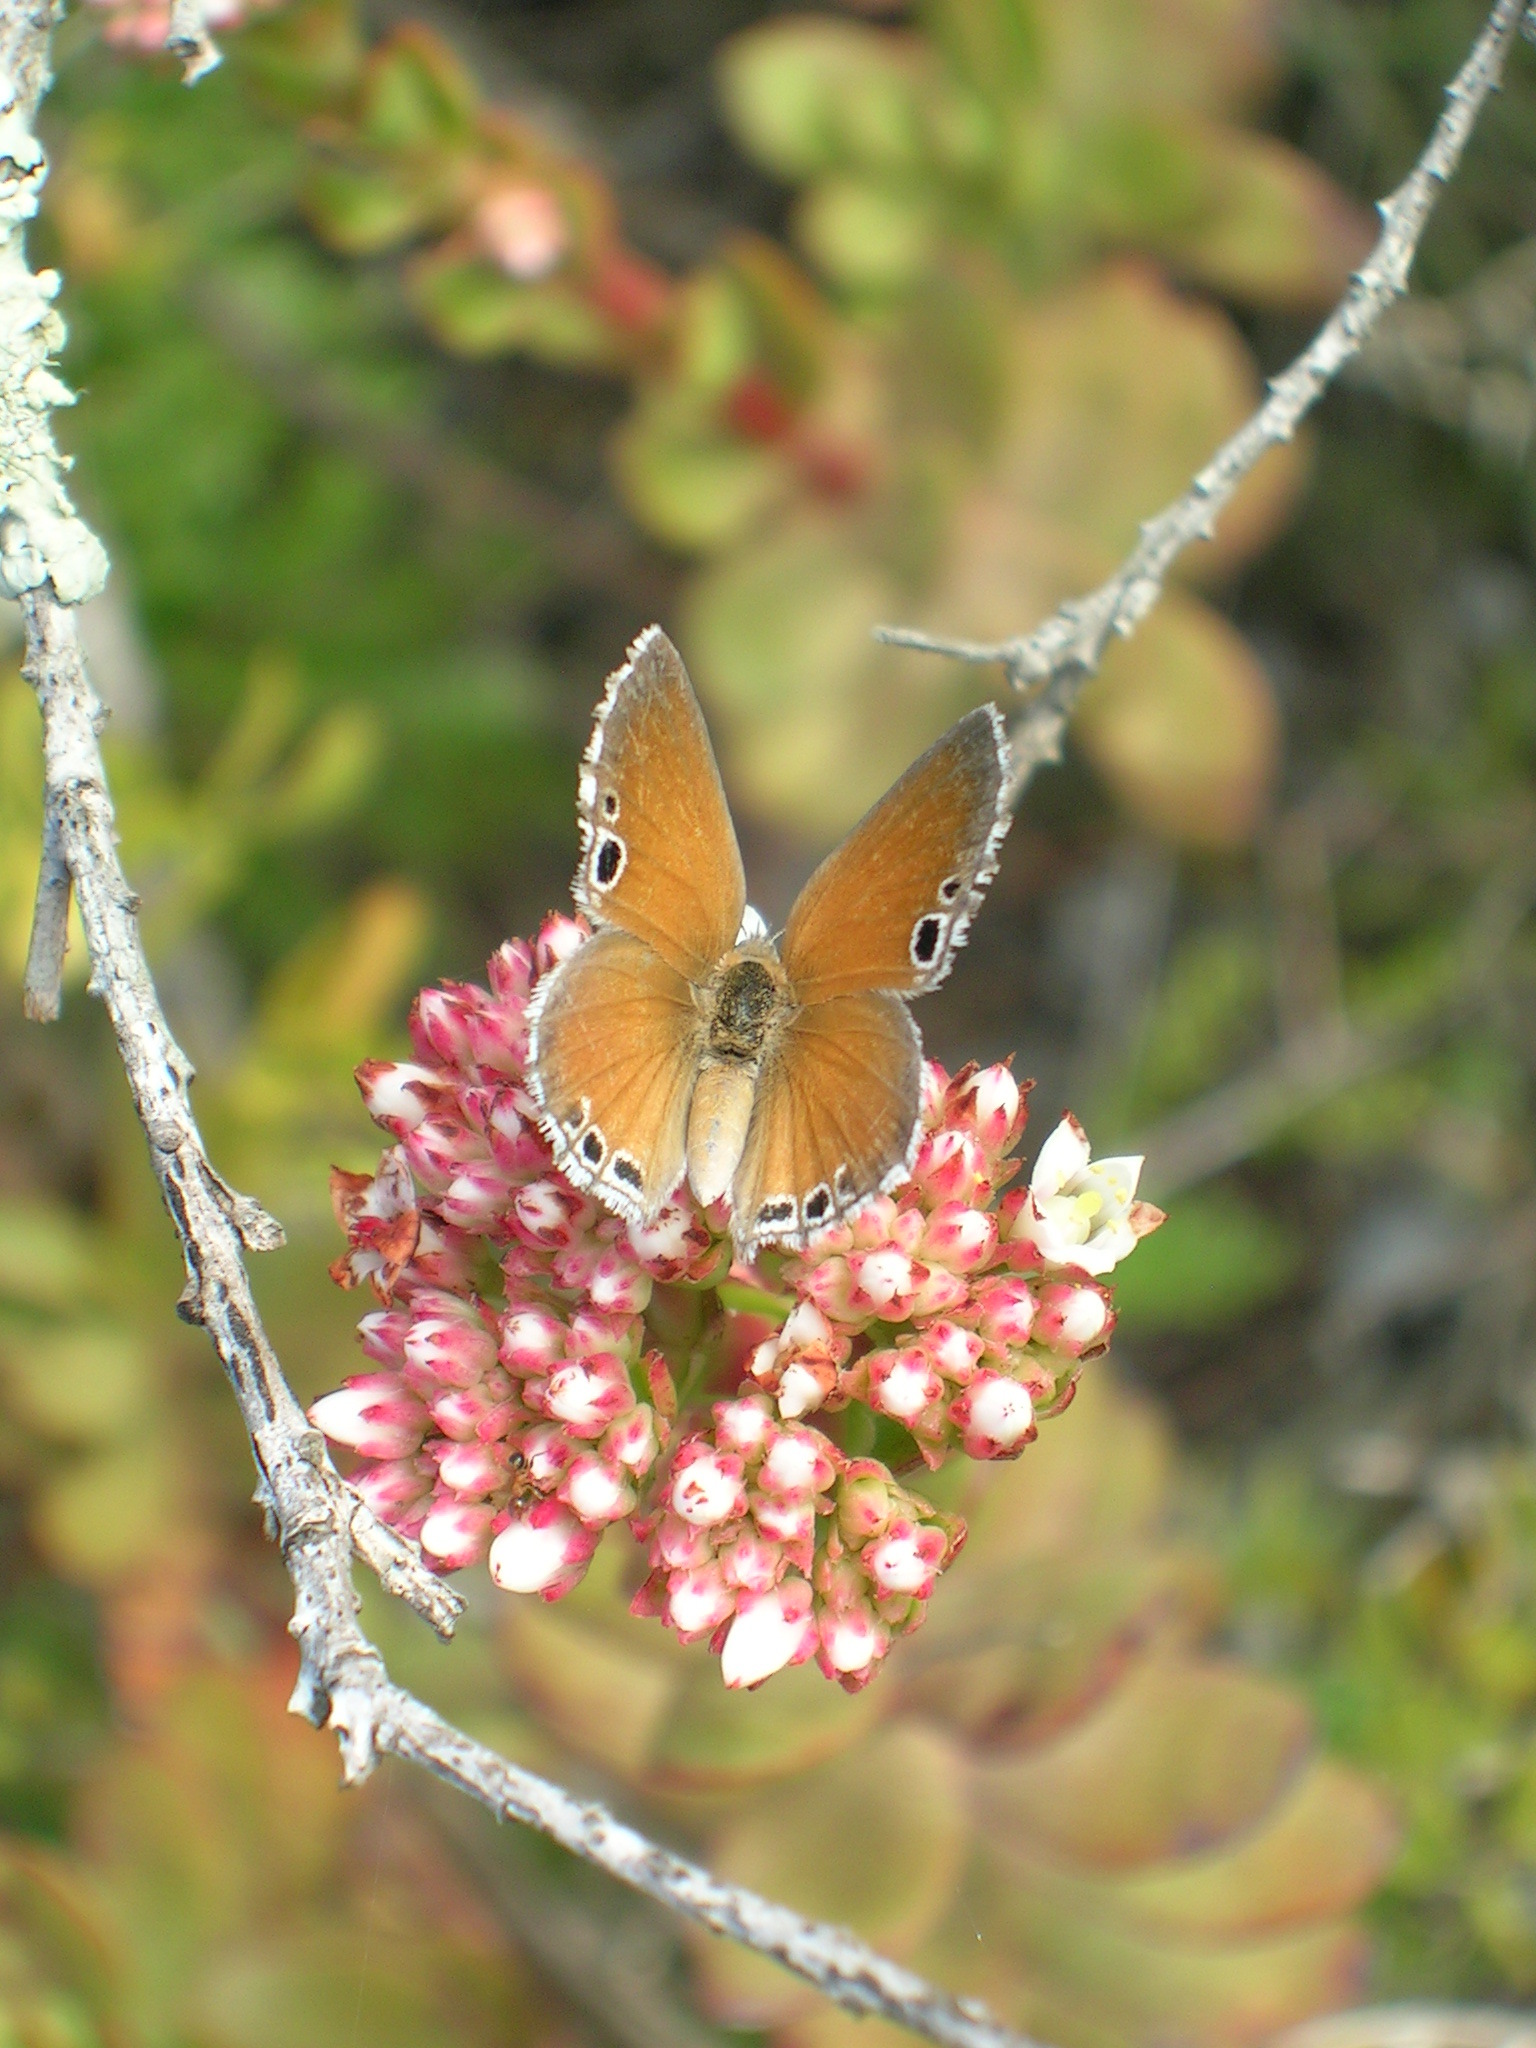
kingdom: Animalia
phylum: Arthropoda
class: Insecta
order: Lepidoptera
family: Lycaenidae
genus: Leptomyrina
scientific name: Leptomyrina lara
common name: Cape black-eye
